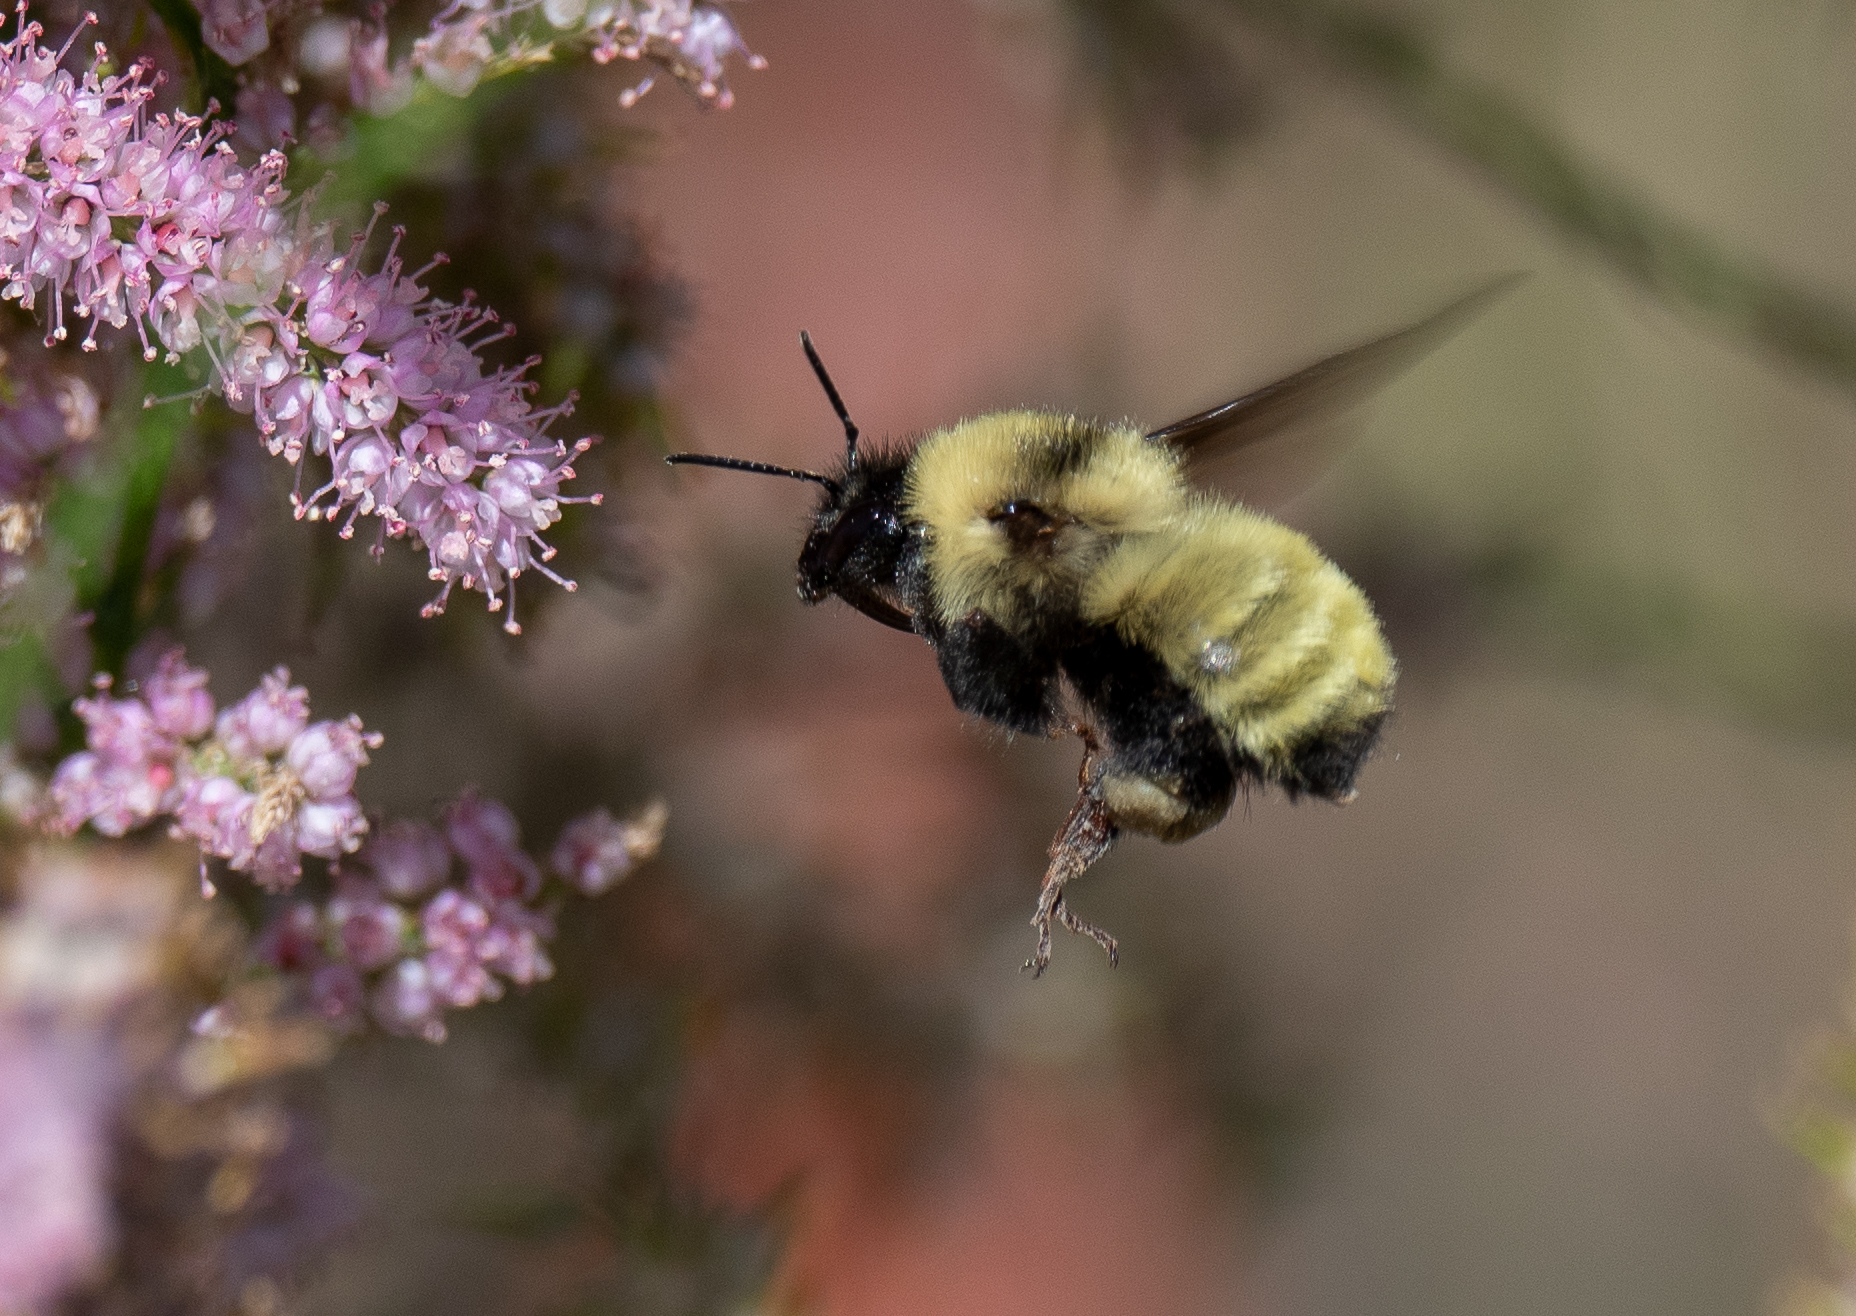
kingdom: Animalia
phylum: Arthropoda
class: Insecta
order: Hymenoptera
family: Apidae
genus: Bombus
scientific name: Bombus fervidus
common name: Yellow bumble bee
